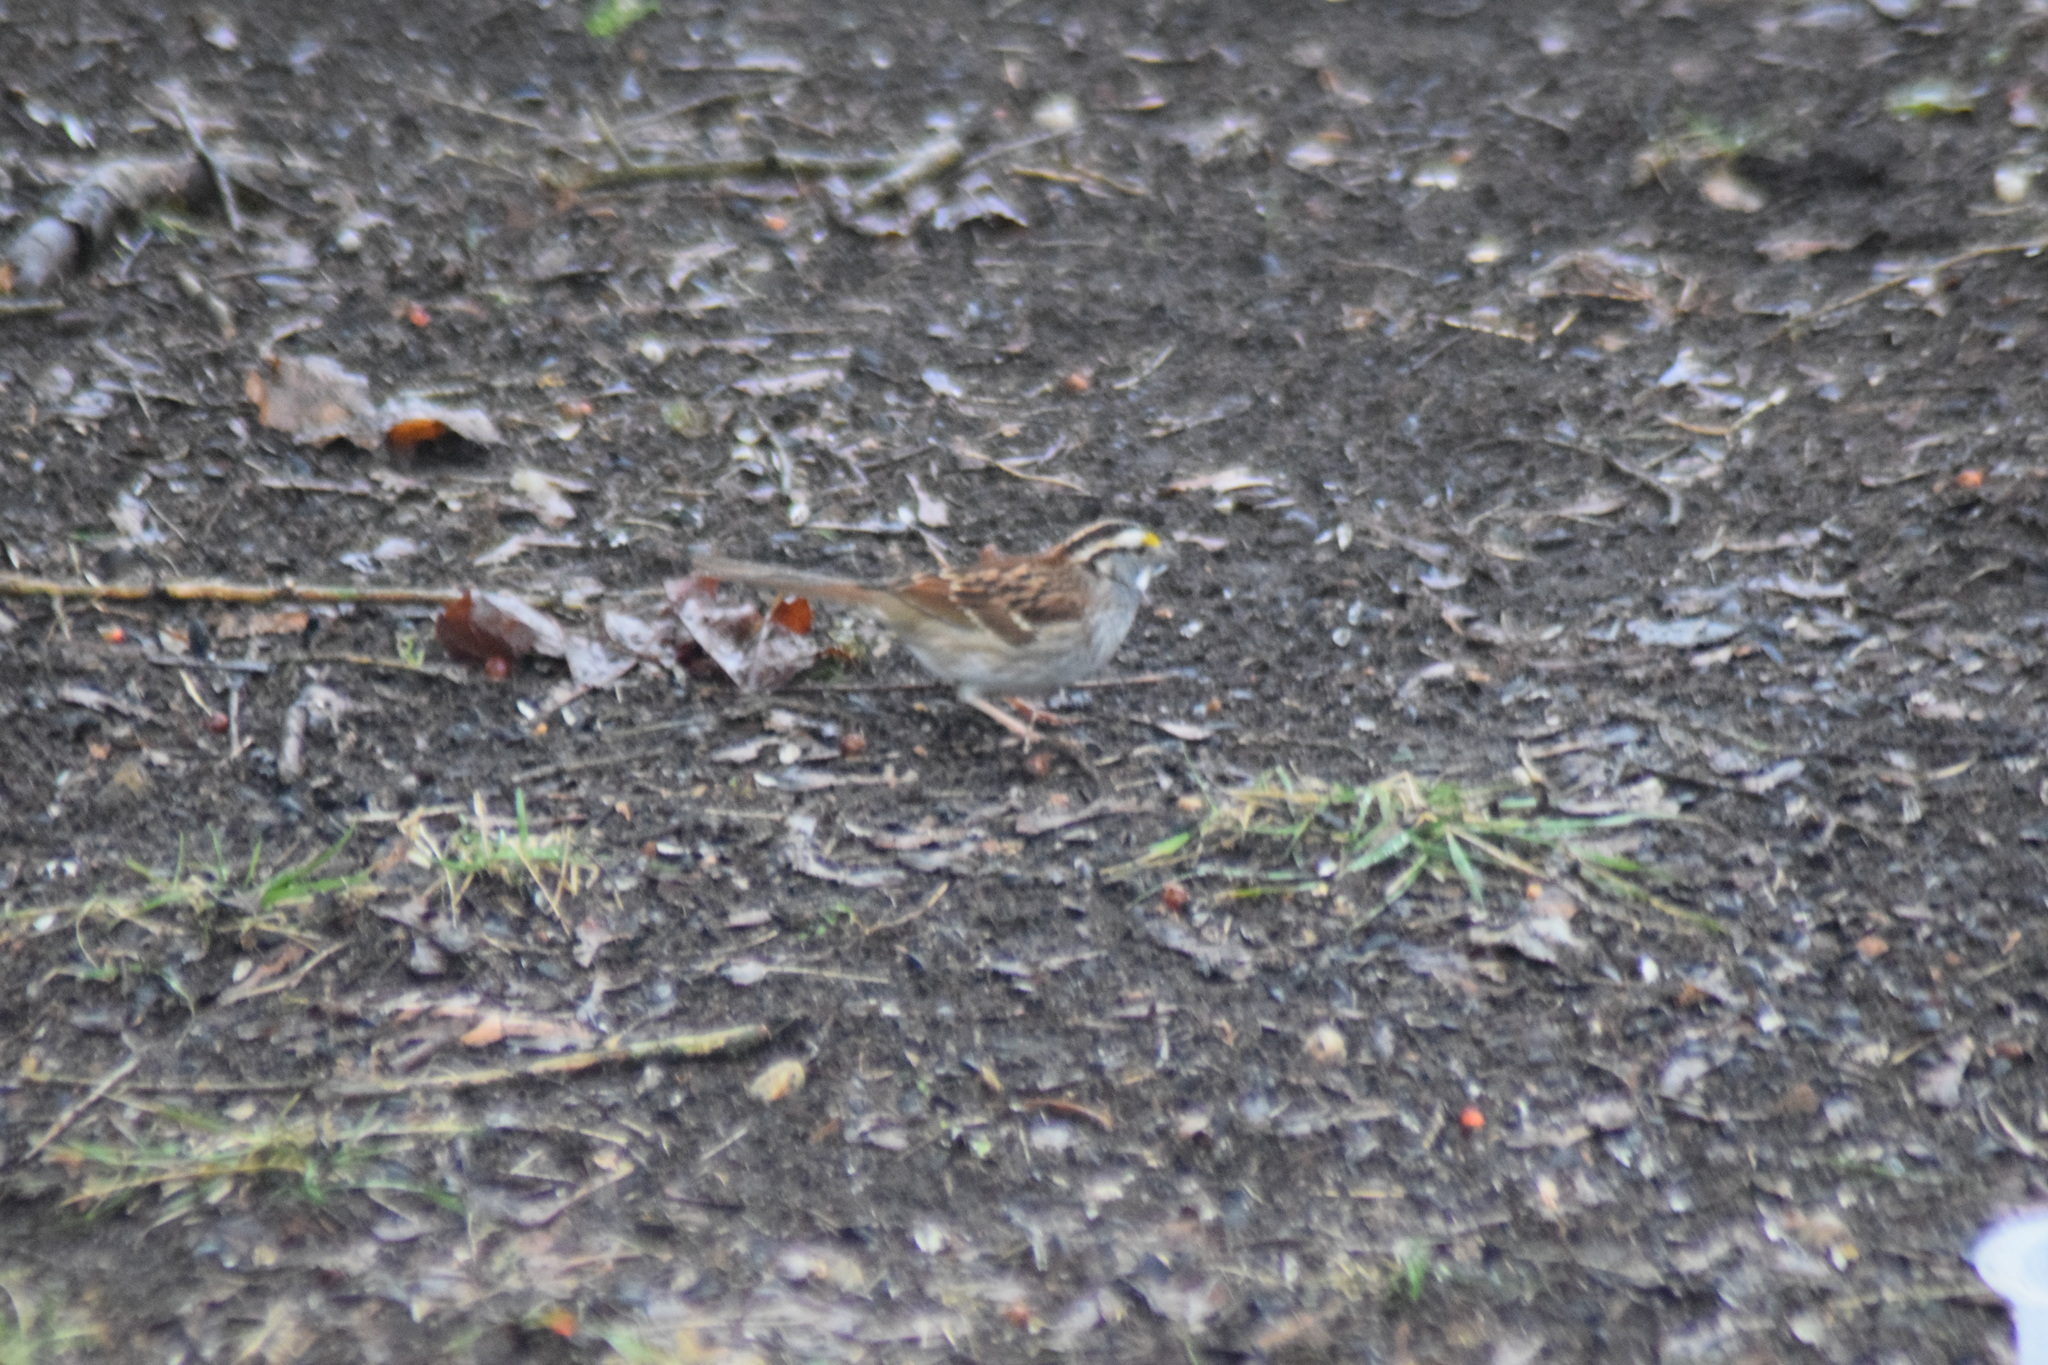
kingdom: Animalia
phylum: Chordata
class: Aves
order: Passeriformes
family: Passerellidae
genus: Zonotrichia
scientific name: Zonotrichia albicollis
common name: White-throated sparrow
